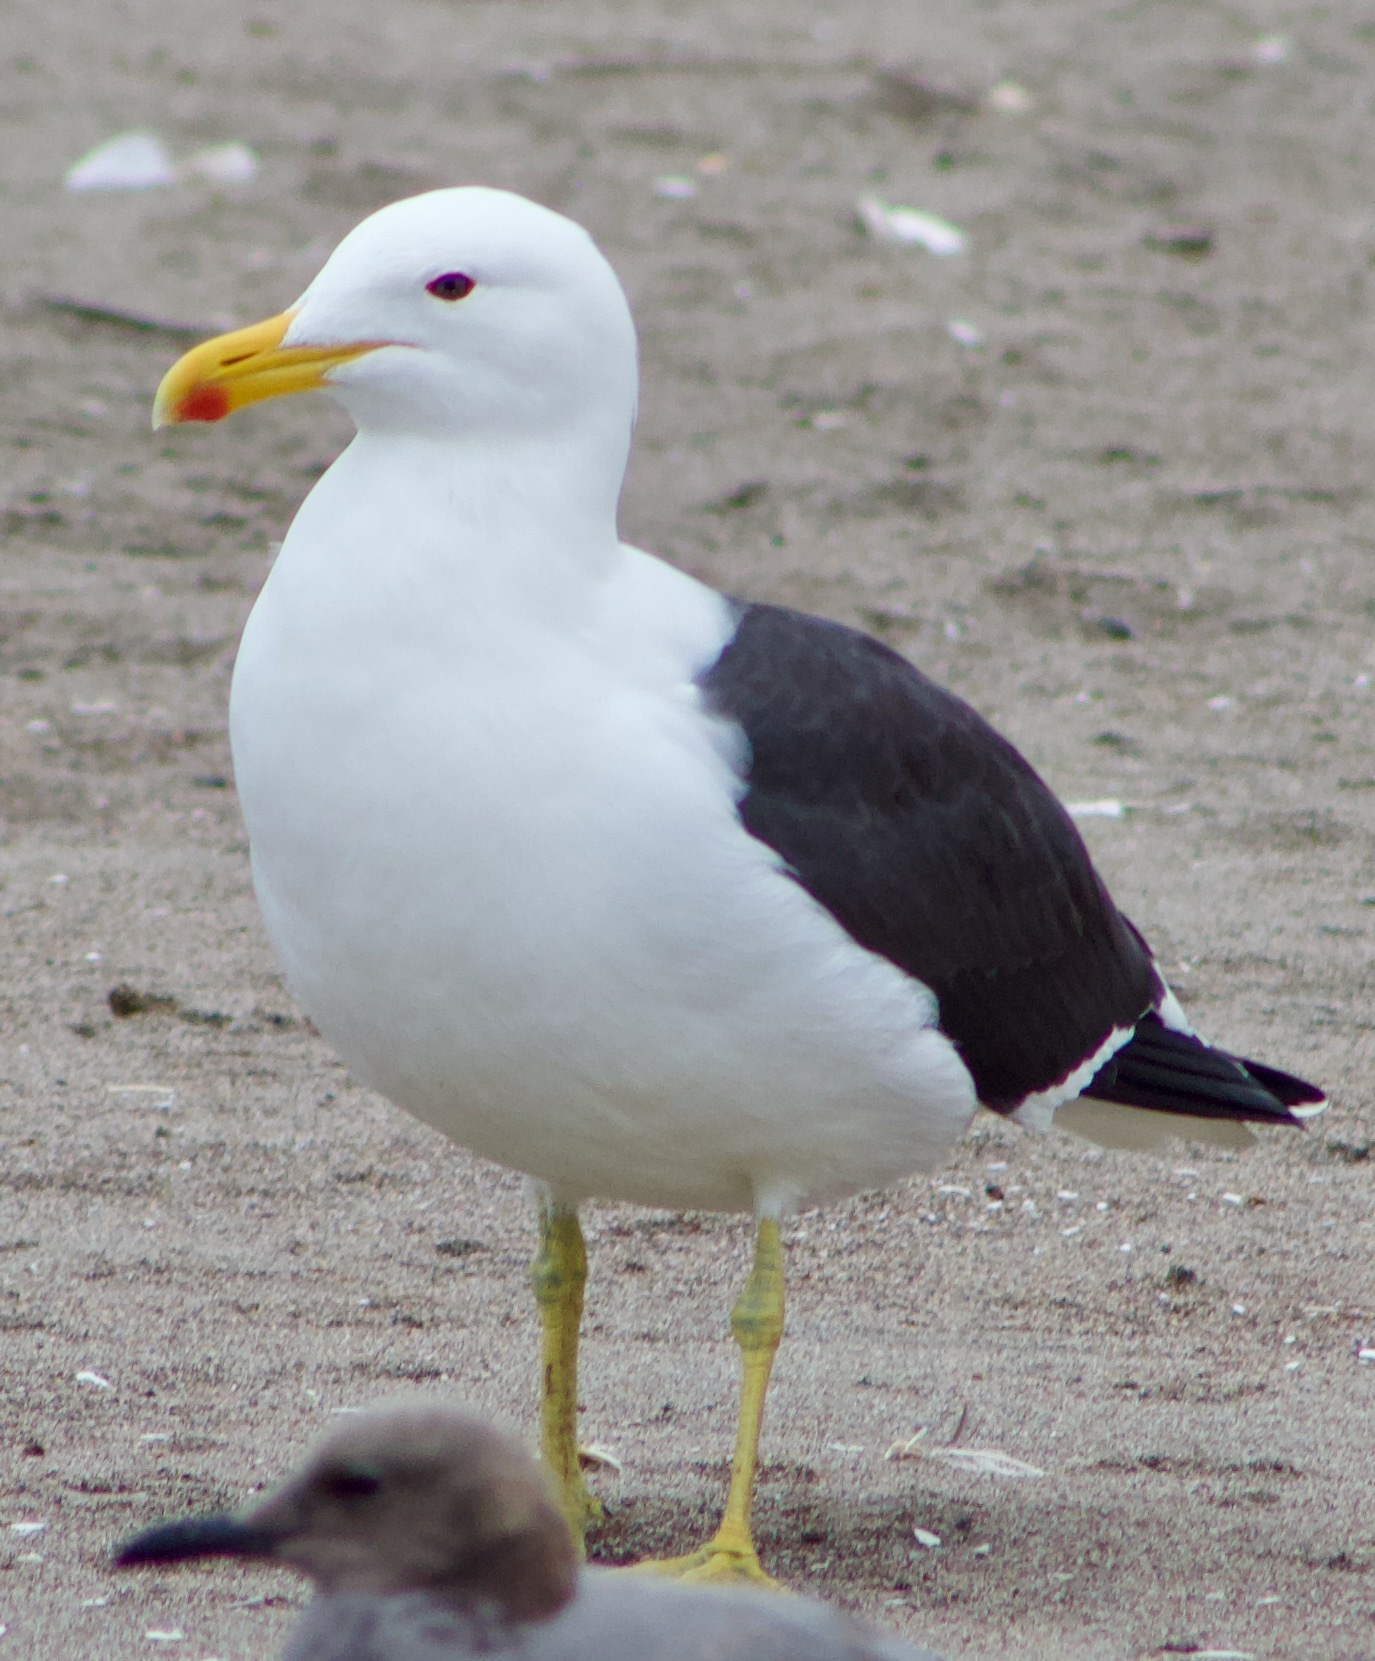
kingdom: Animalia
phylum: Chordata
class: Aves
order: Charadriiformes
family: Laridae
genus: Larus
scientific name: Larus dominicanus
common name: Kelp gull
